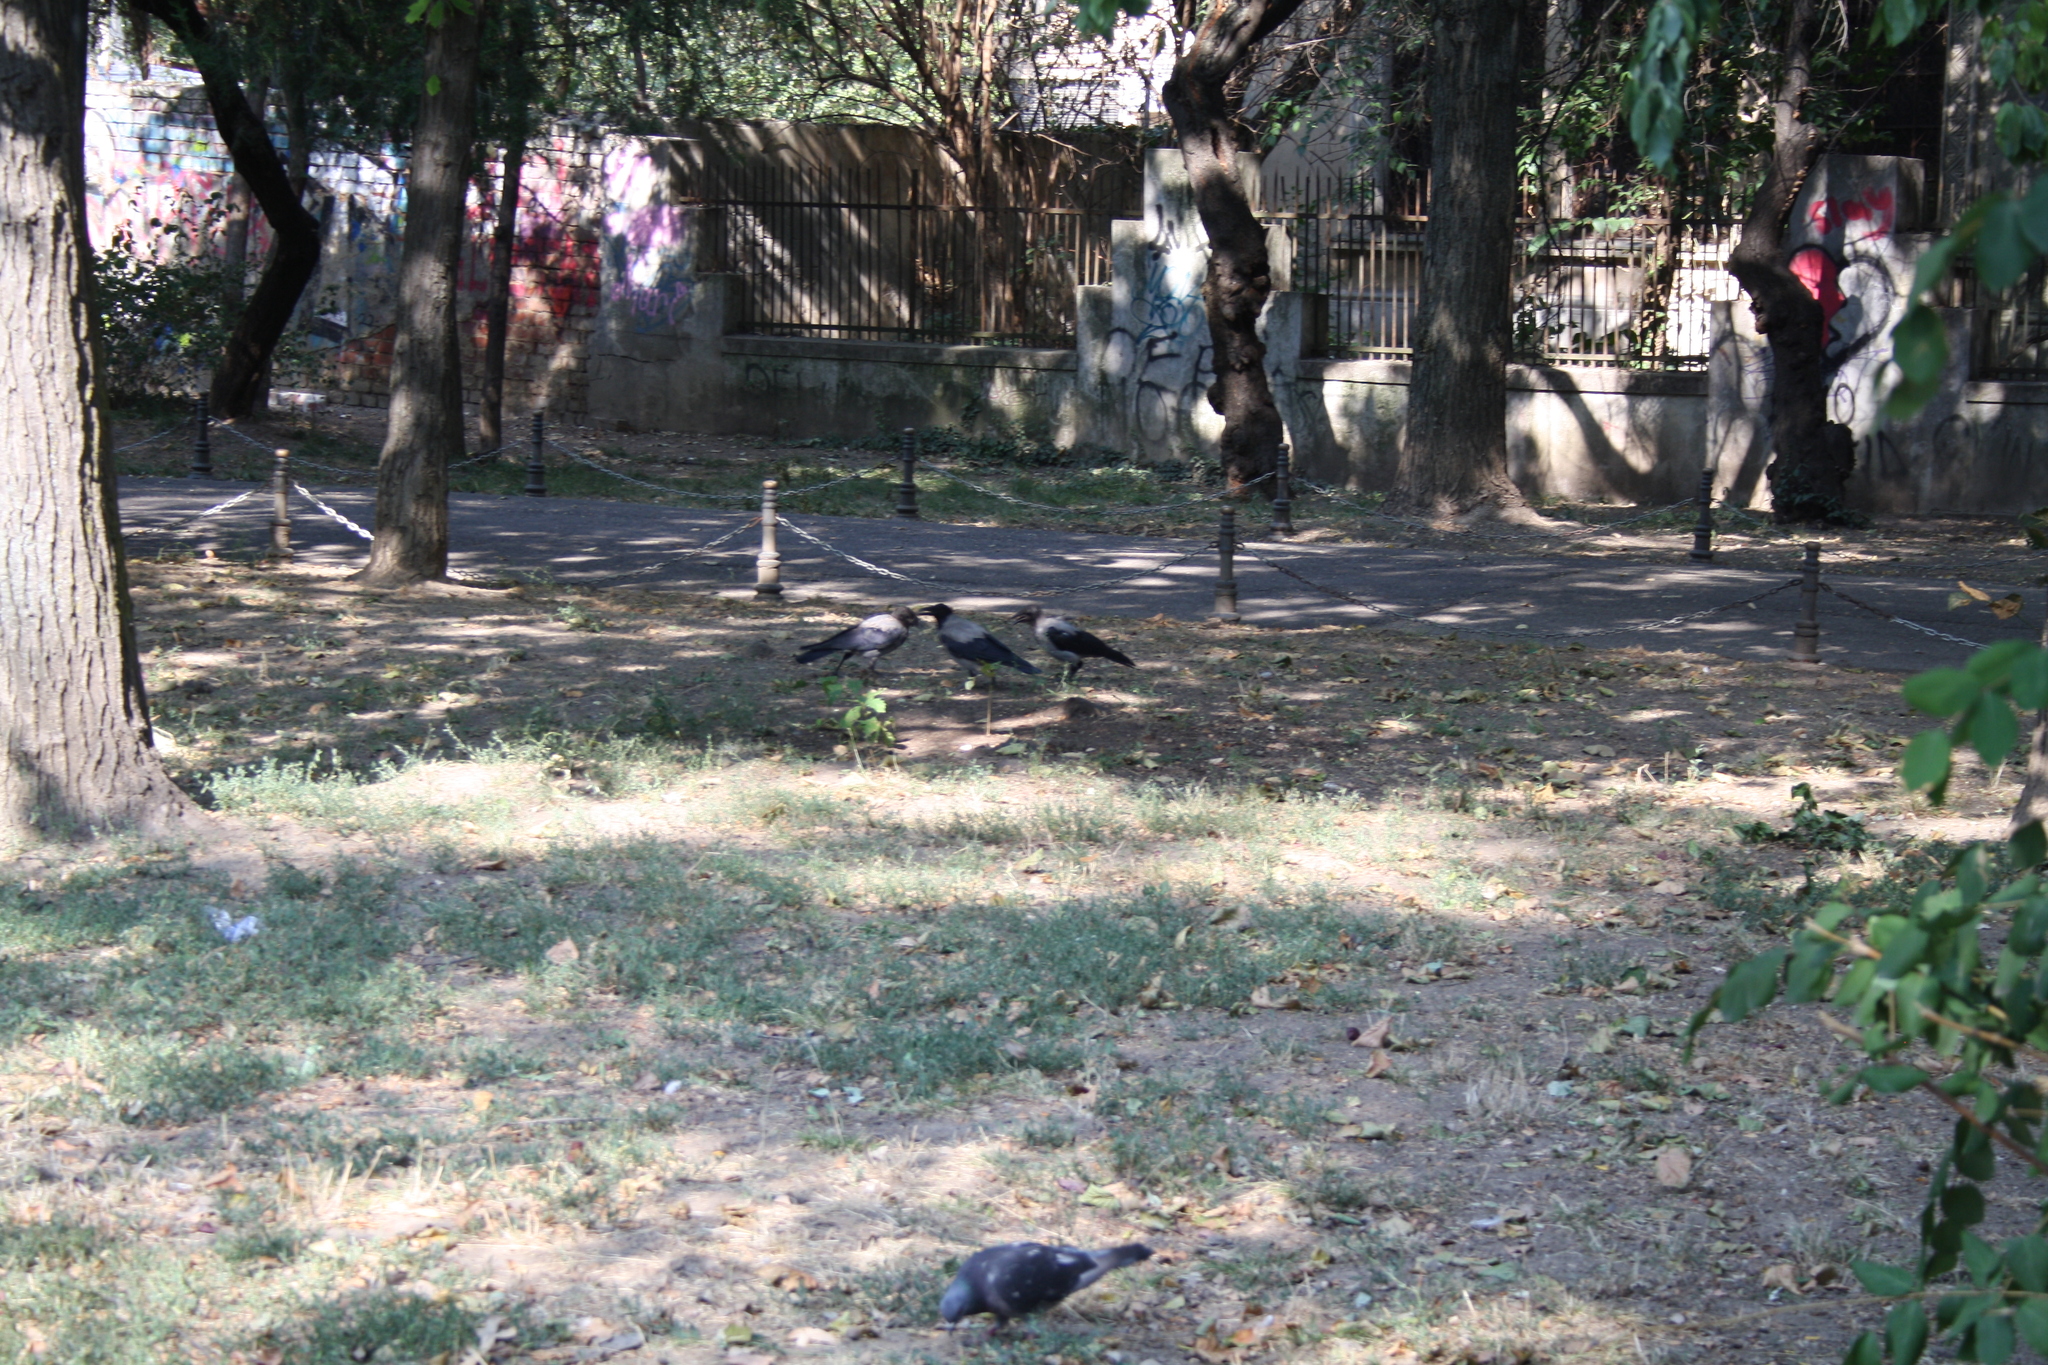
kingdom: Animalia
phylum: Chordata
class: Aves
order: Passeriformes
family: Corvidae
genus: Corvus
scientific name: Corvus cornix
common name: Hooded crow
